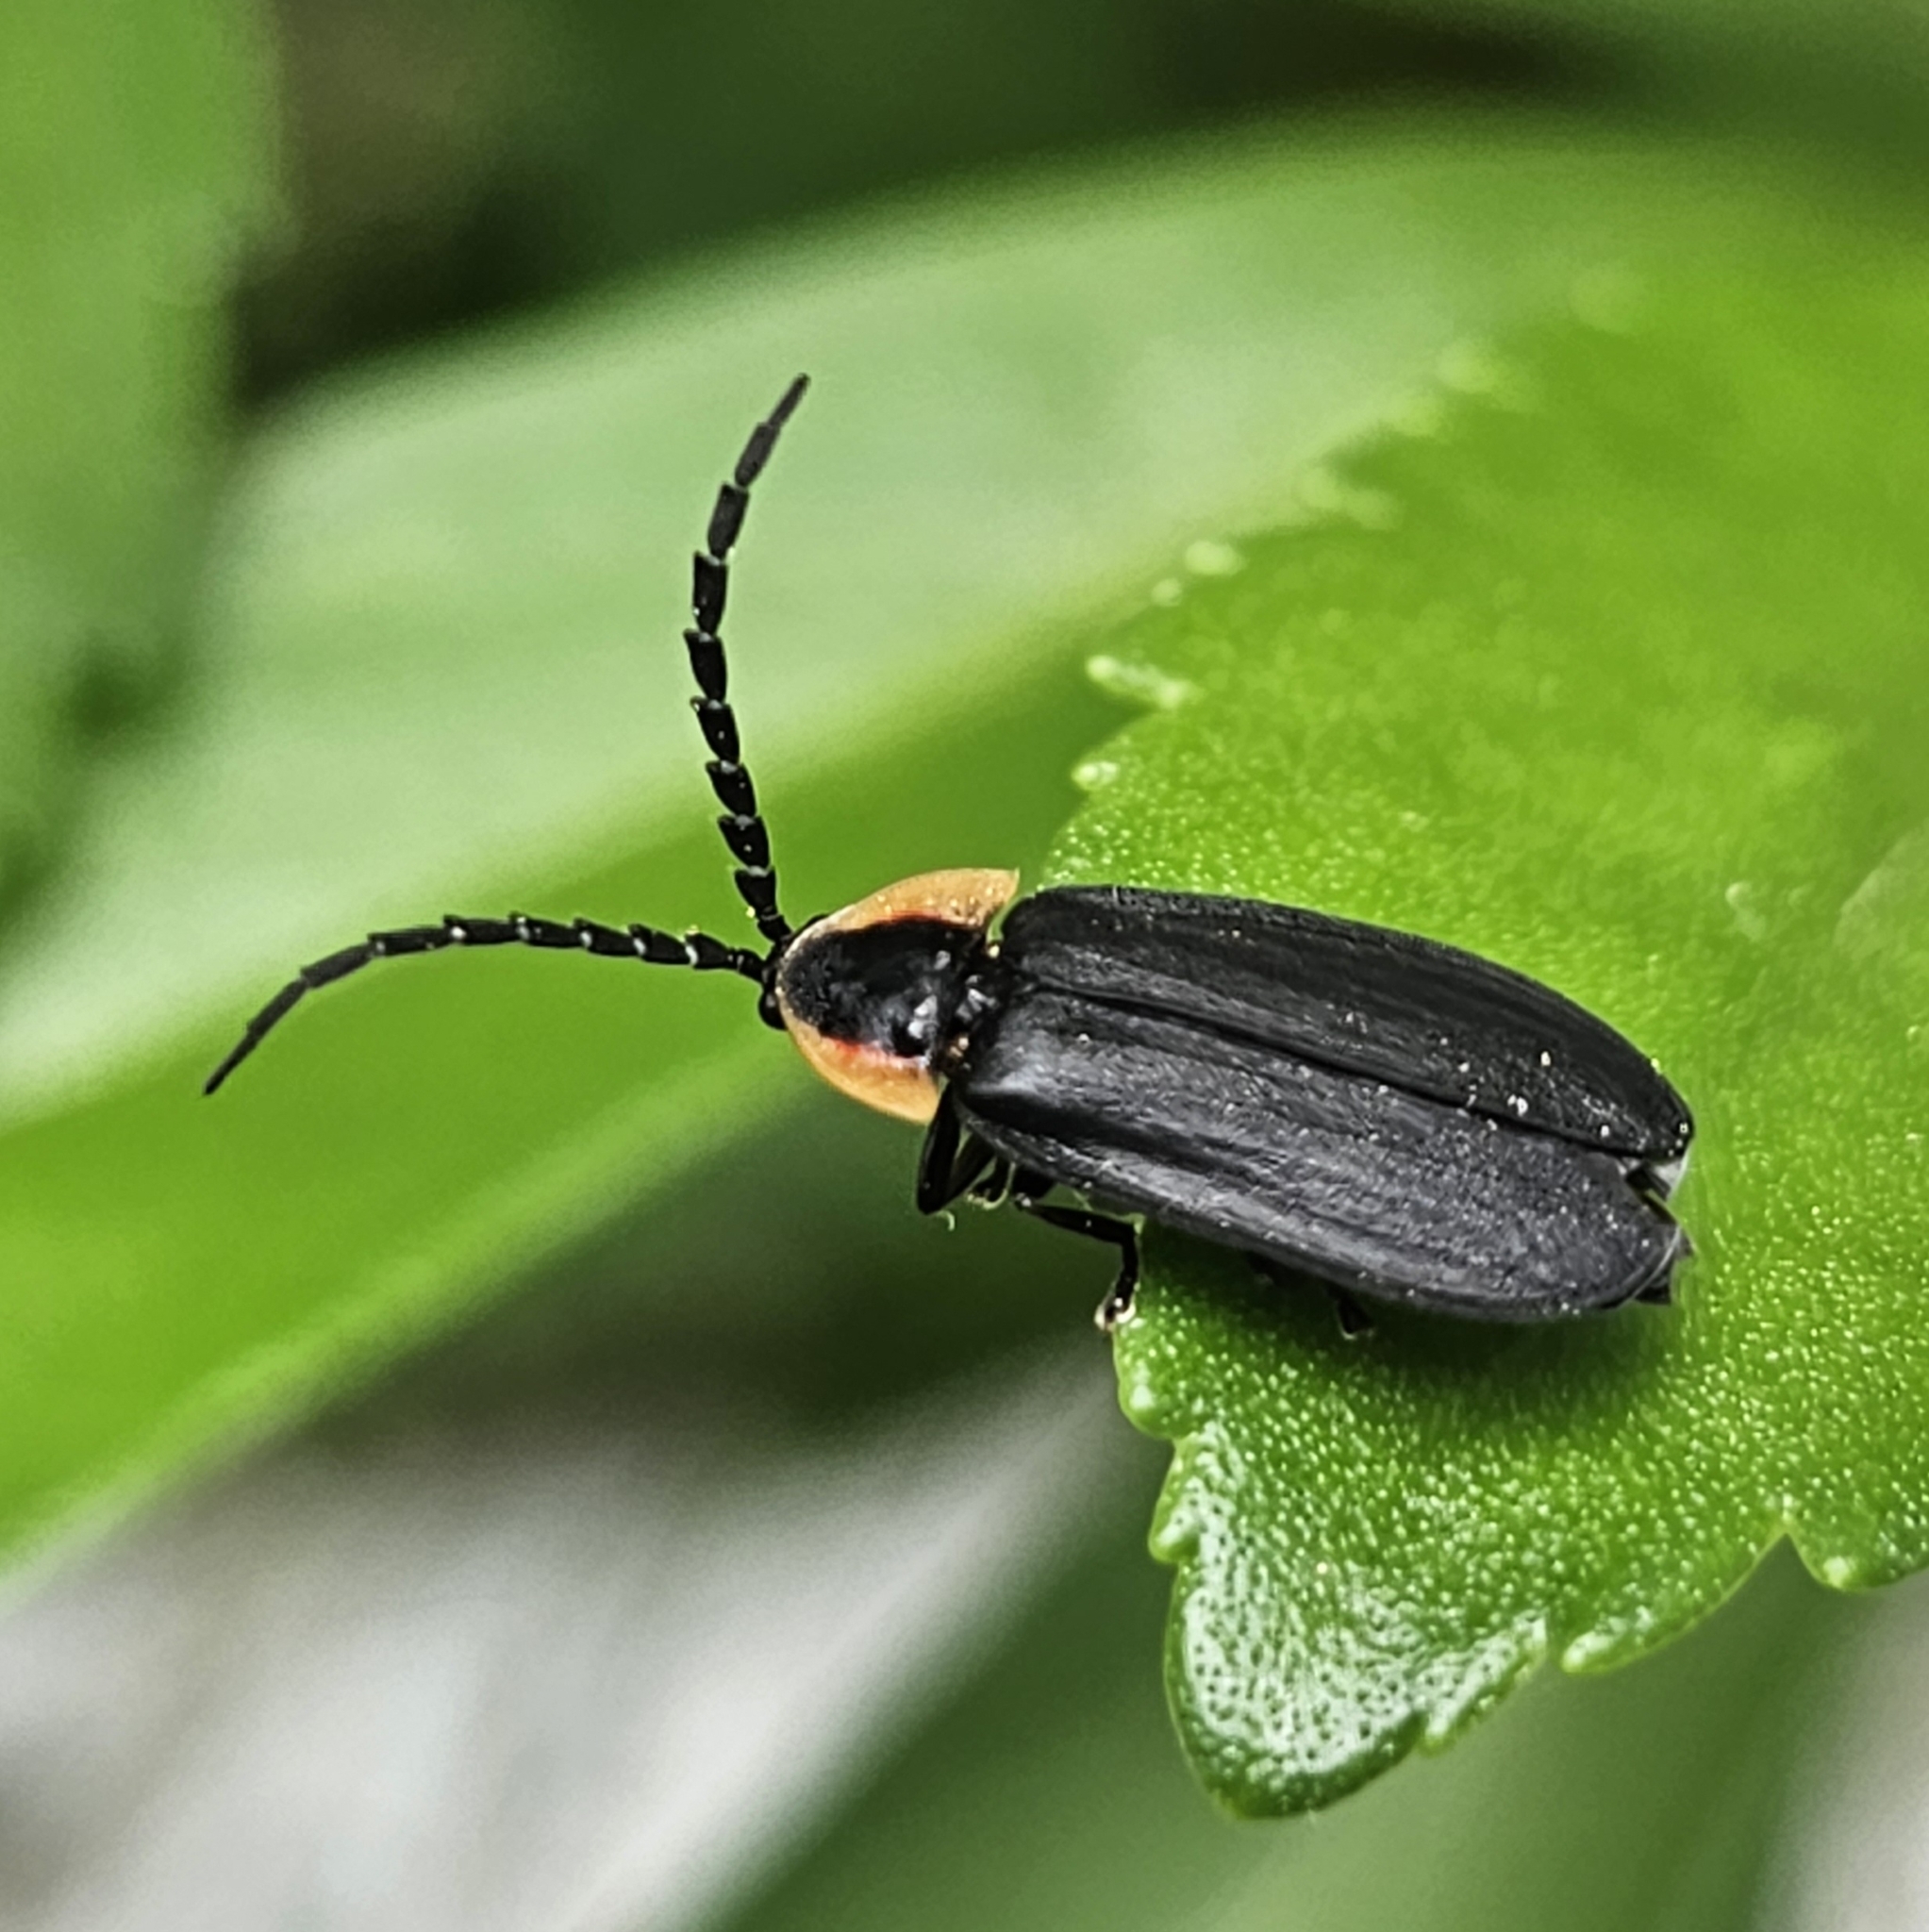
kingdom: Animalia
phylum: Arthropoda
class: Insecta
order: Coleoptera
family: Lampyridae
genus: Lucidota
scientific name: Lucidota atra
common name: Black firefly
